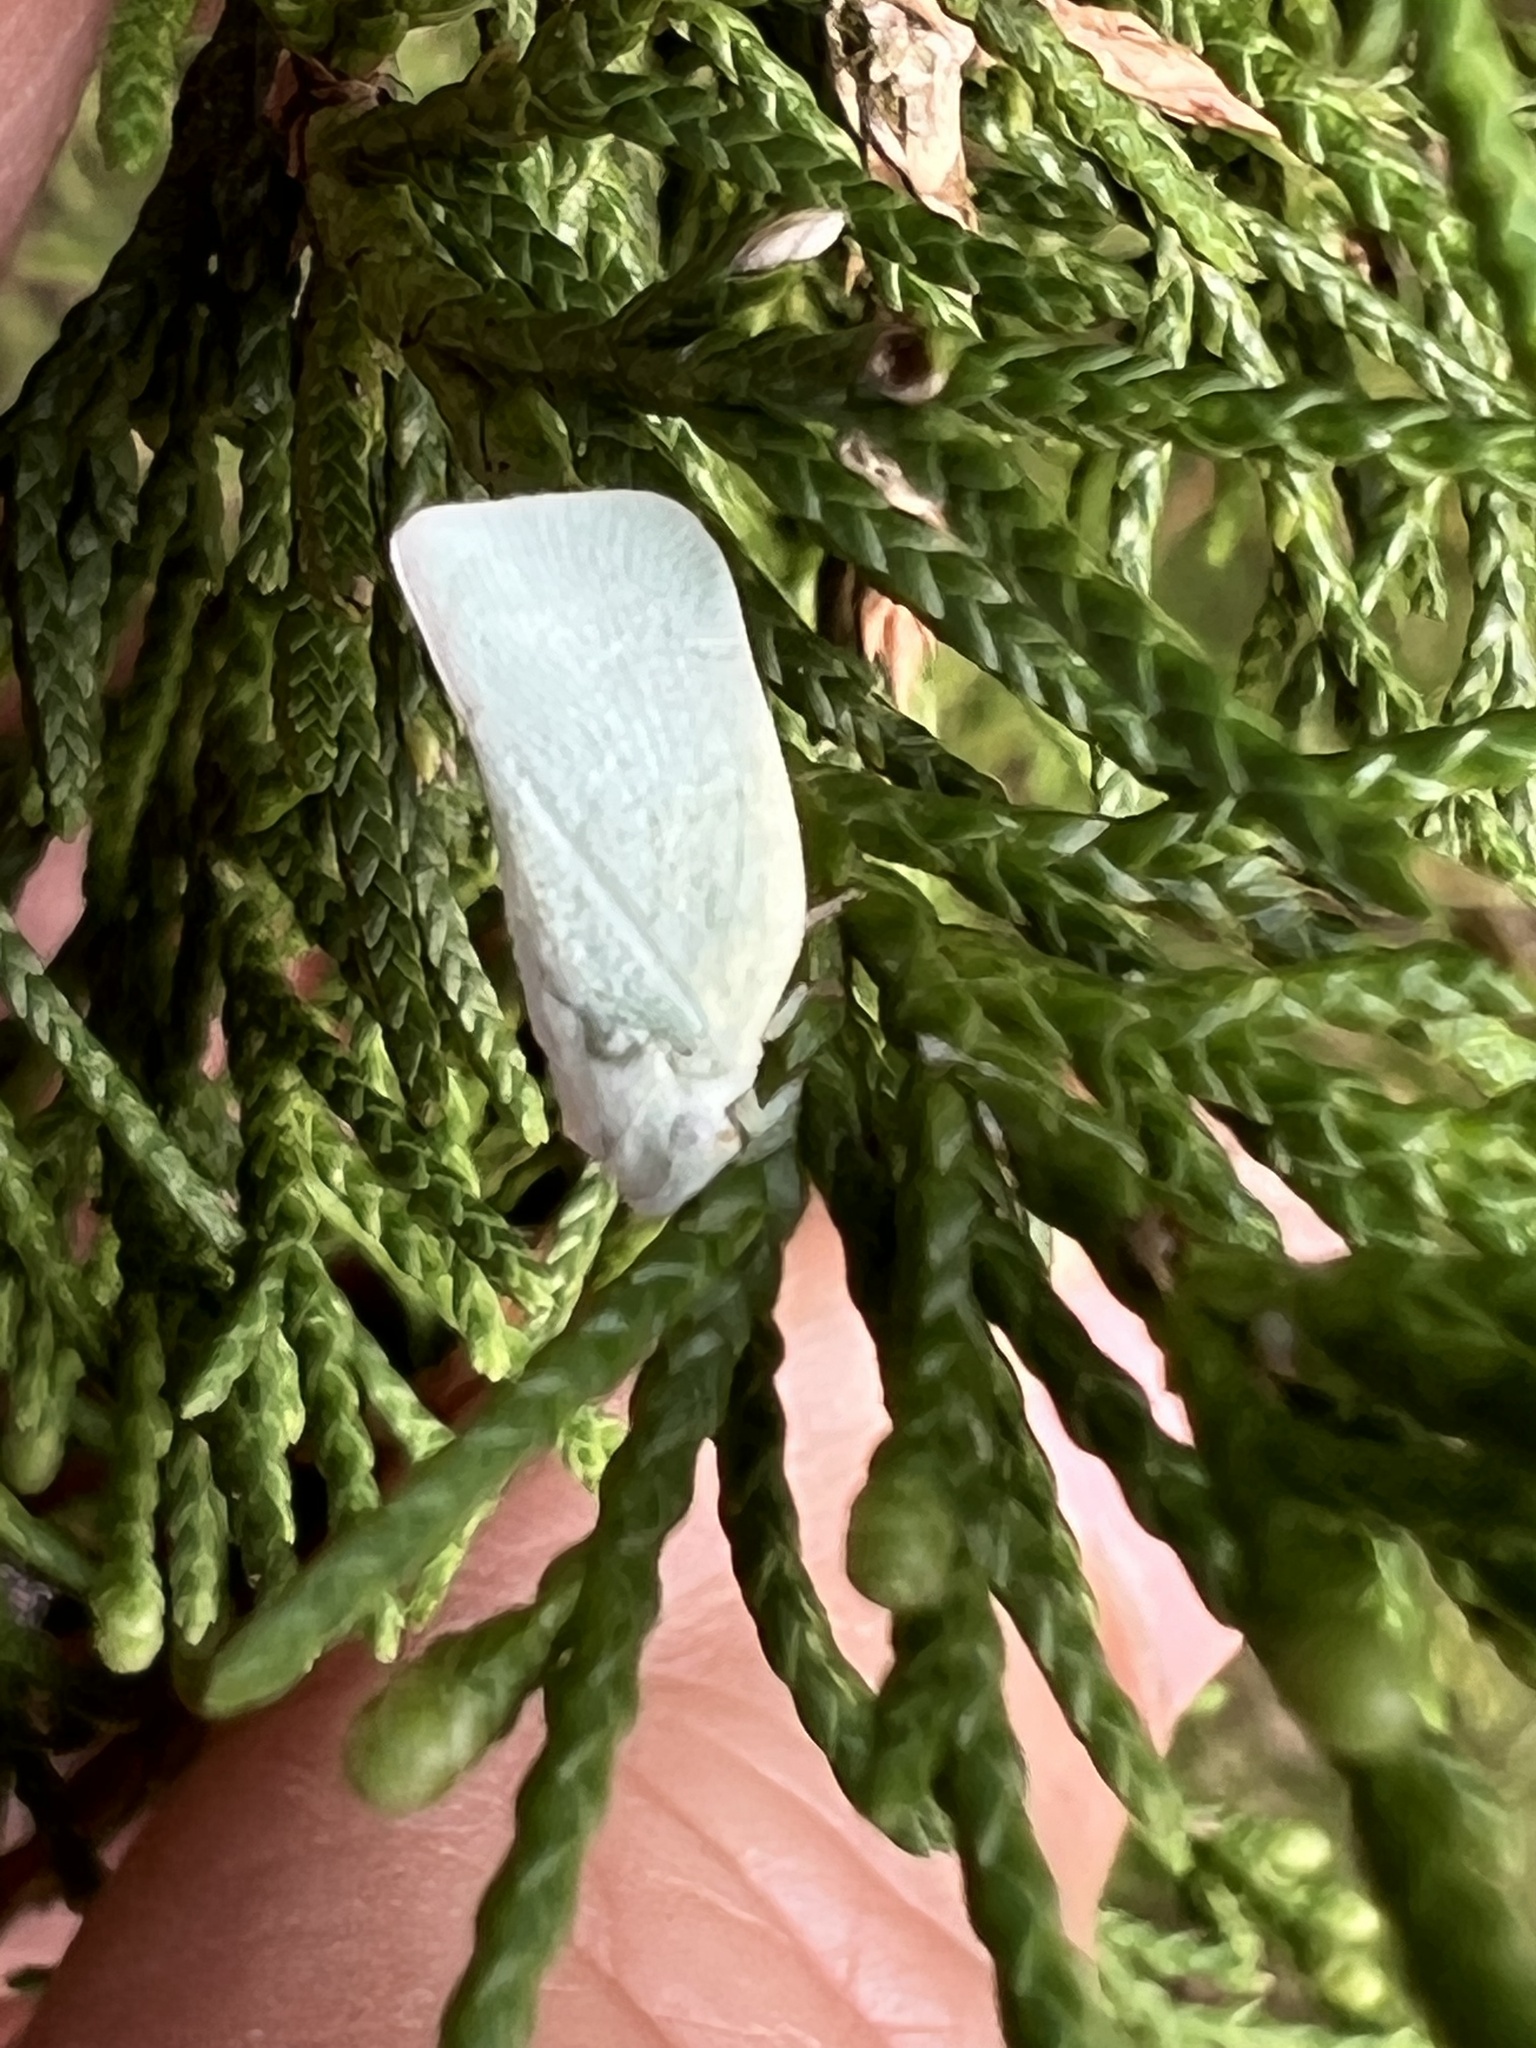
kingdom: Animalia
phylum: Arthropoda
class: Insecta
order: Hemiptera
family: Flatidae
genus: Flatormenis
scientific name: Flatormenis proxima
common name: Northern flatid planthopper
